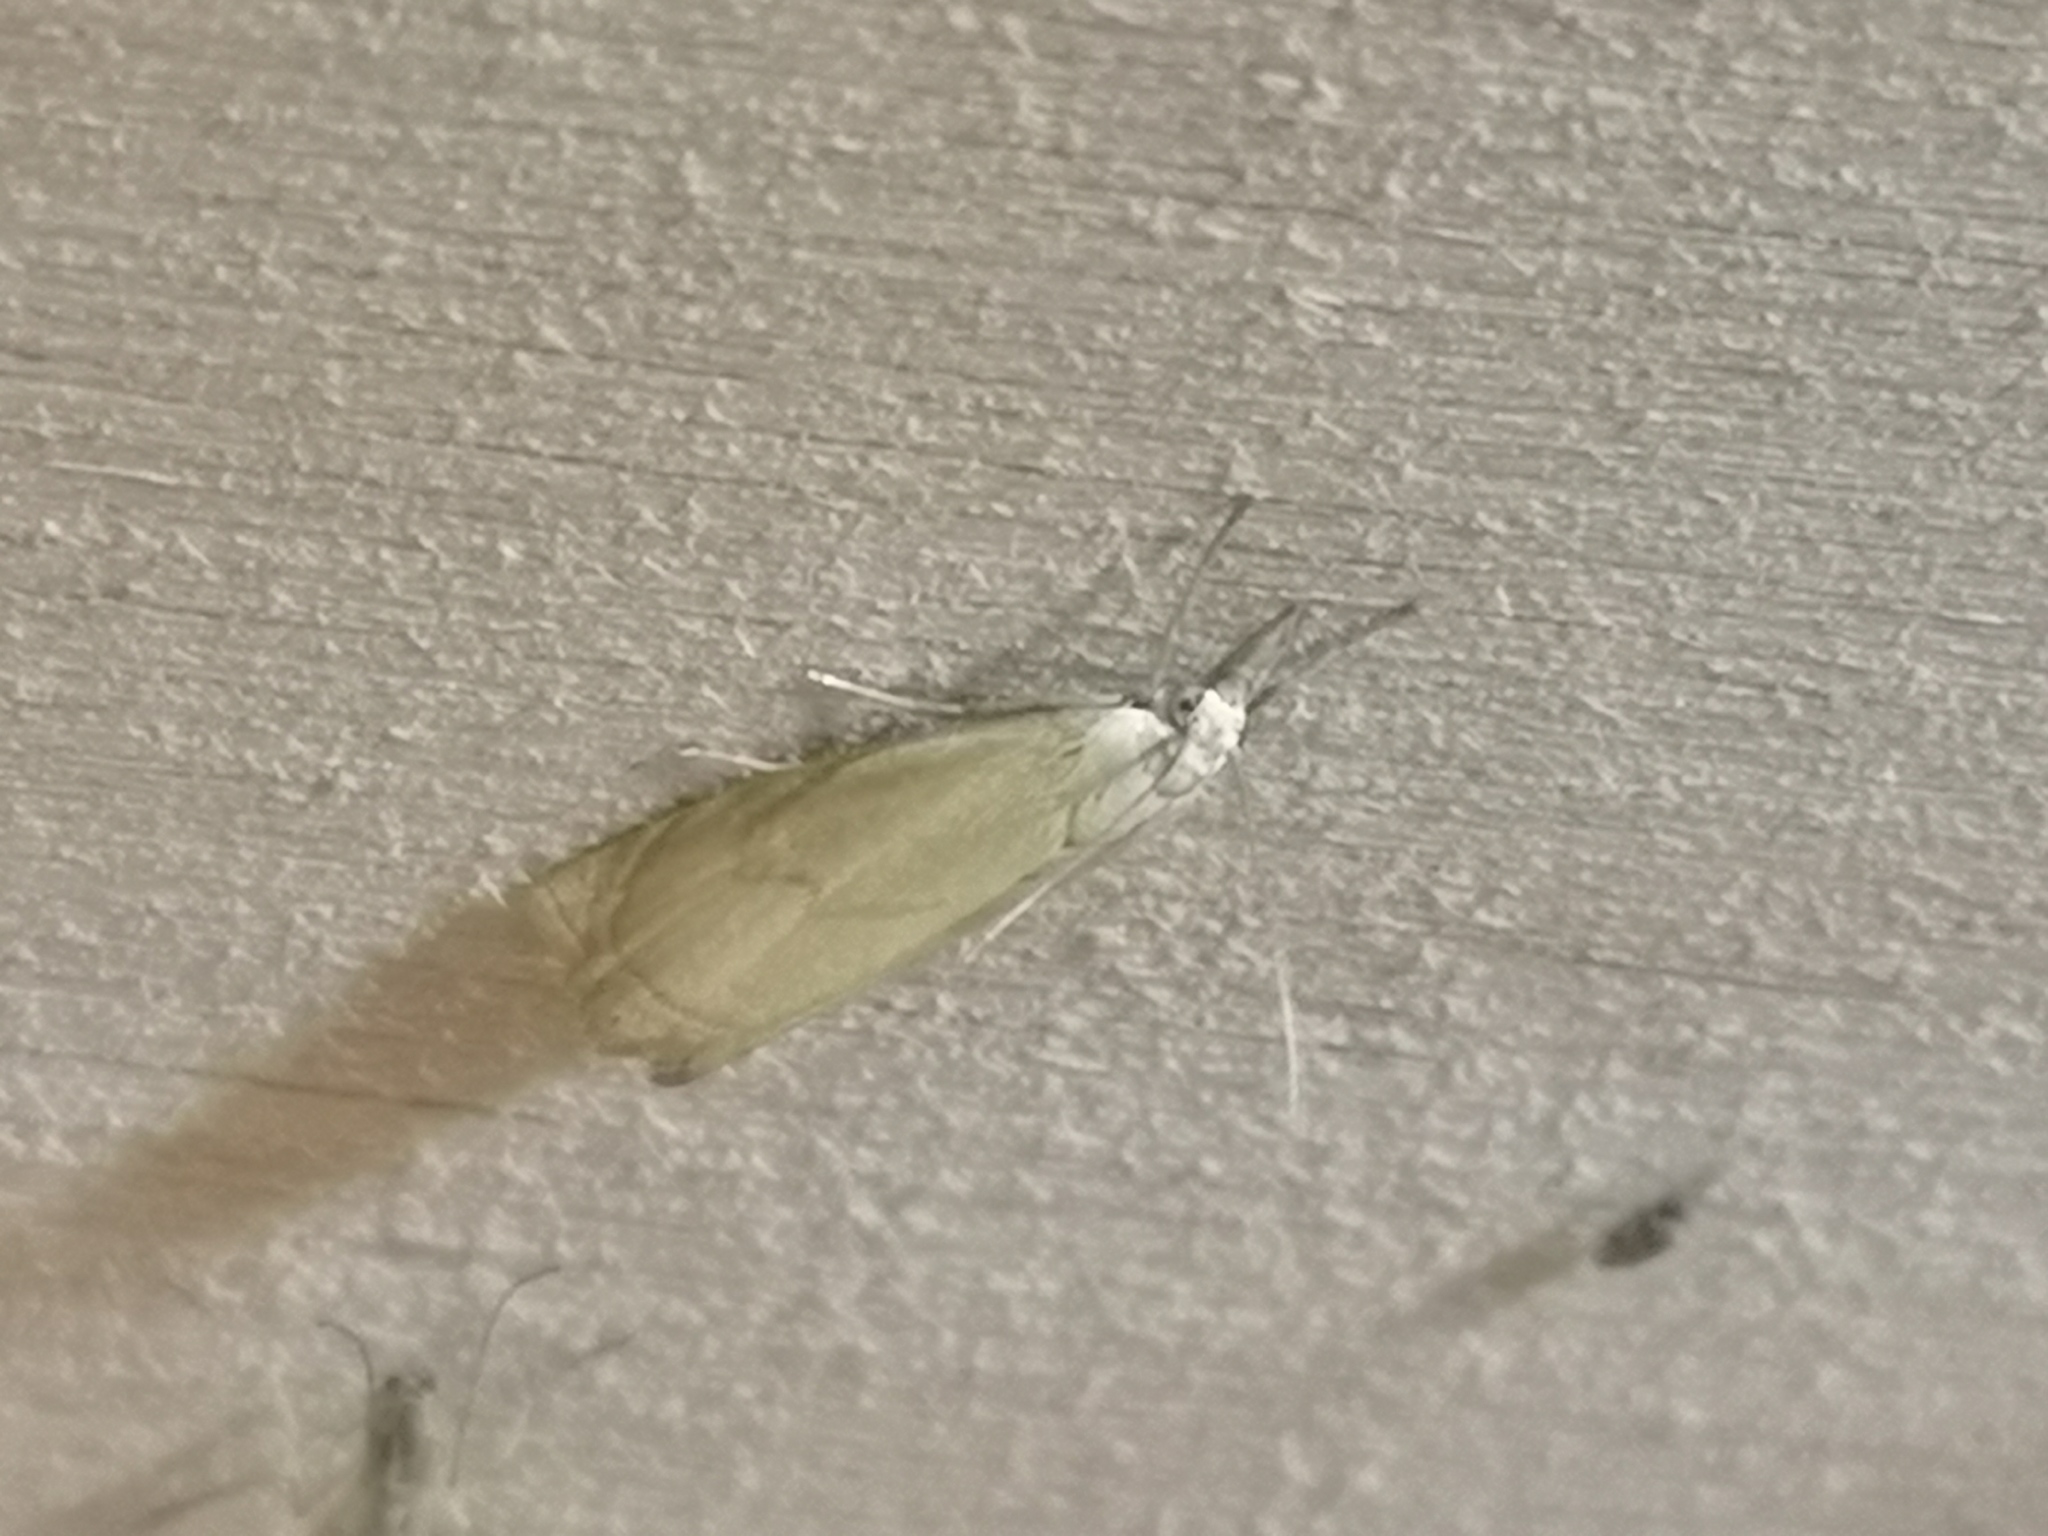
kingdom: Animalia
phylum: Arthropoda
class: Insecta
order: Lepidoptera
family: Crambidae
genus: Chrysoteuchia
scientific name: Chrysoteuchia culmella
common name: Garden grass-veneer
